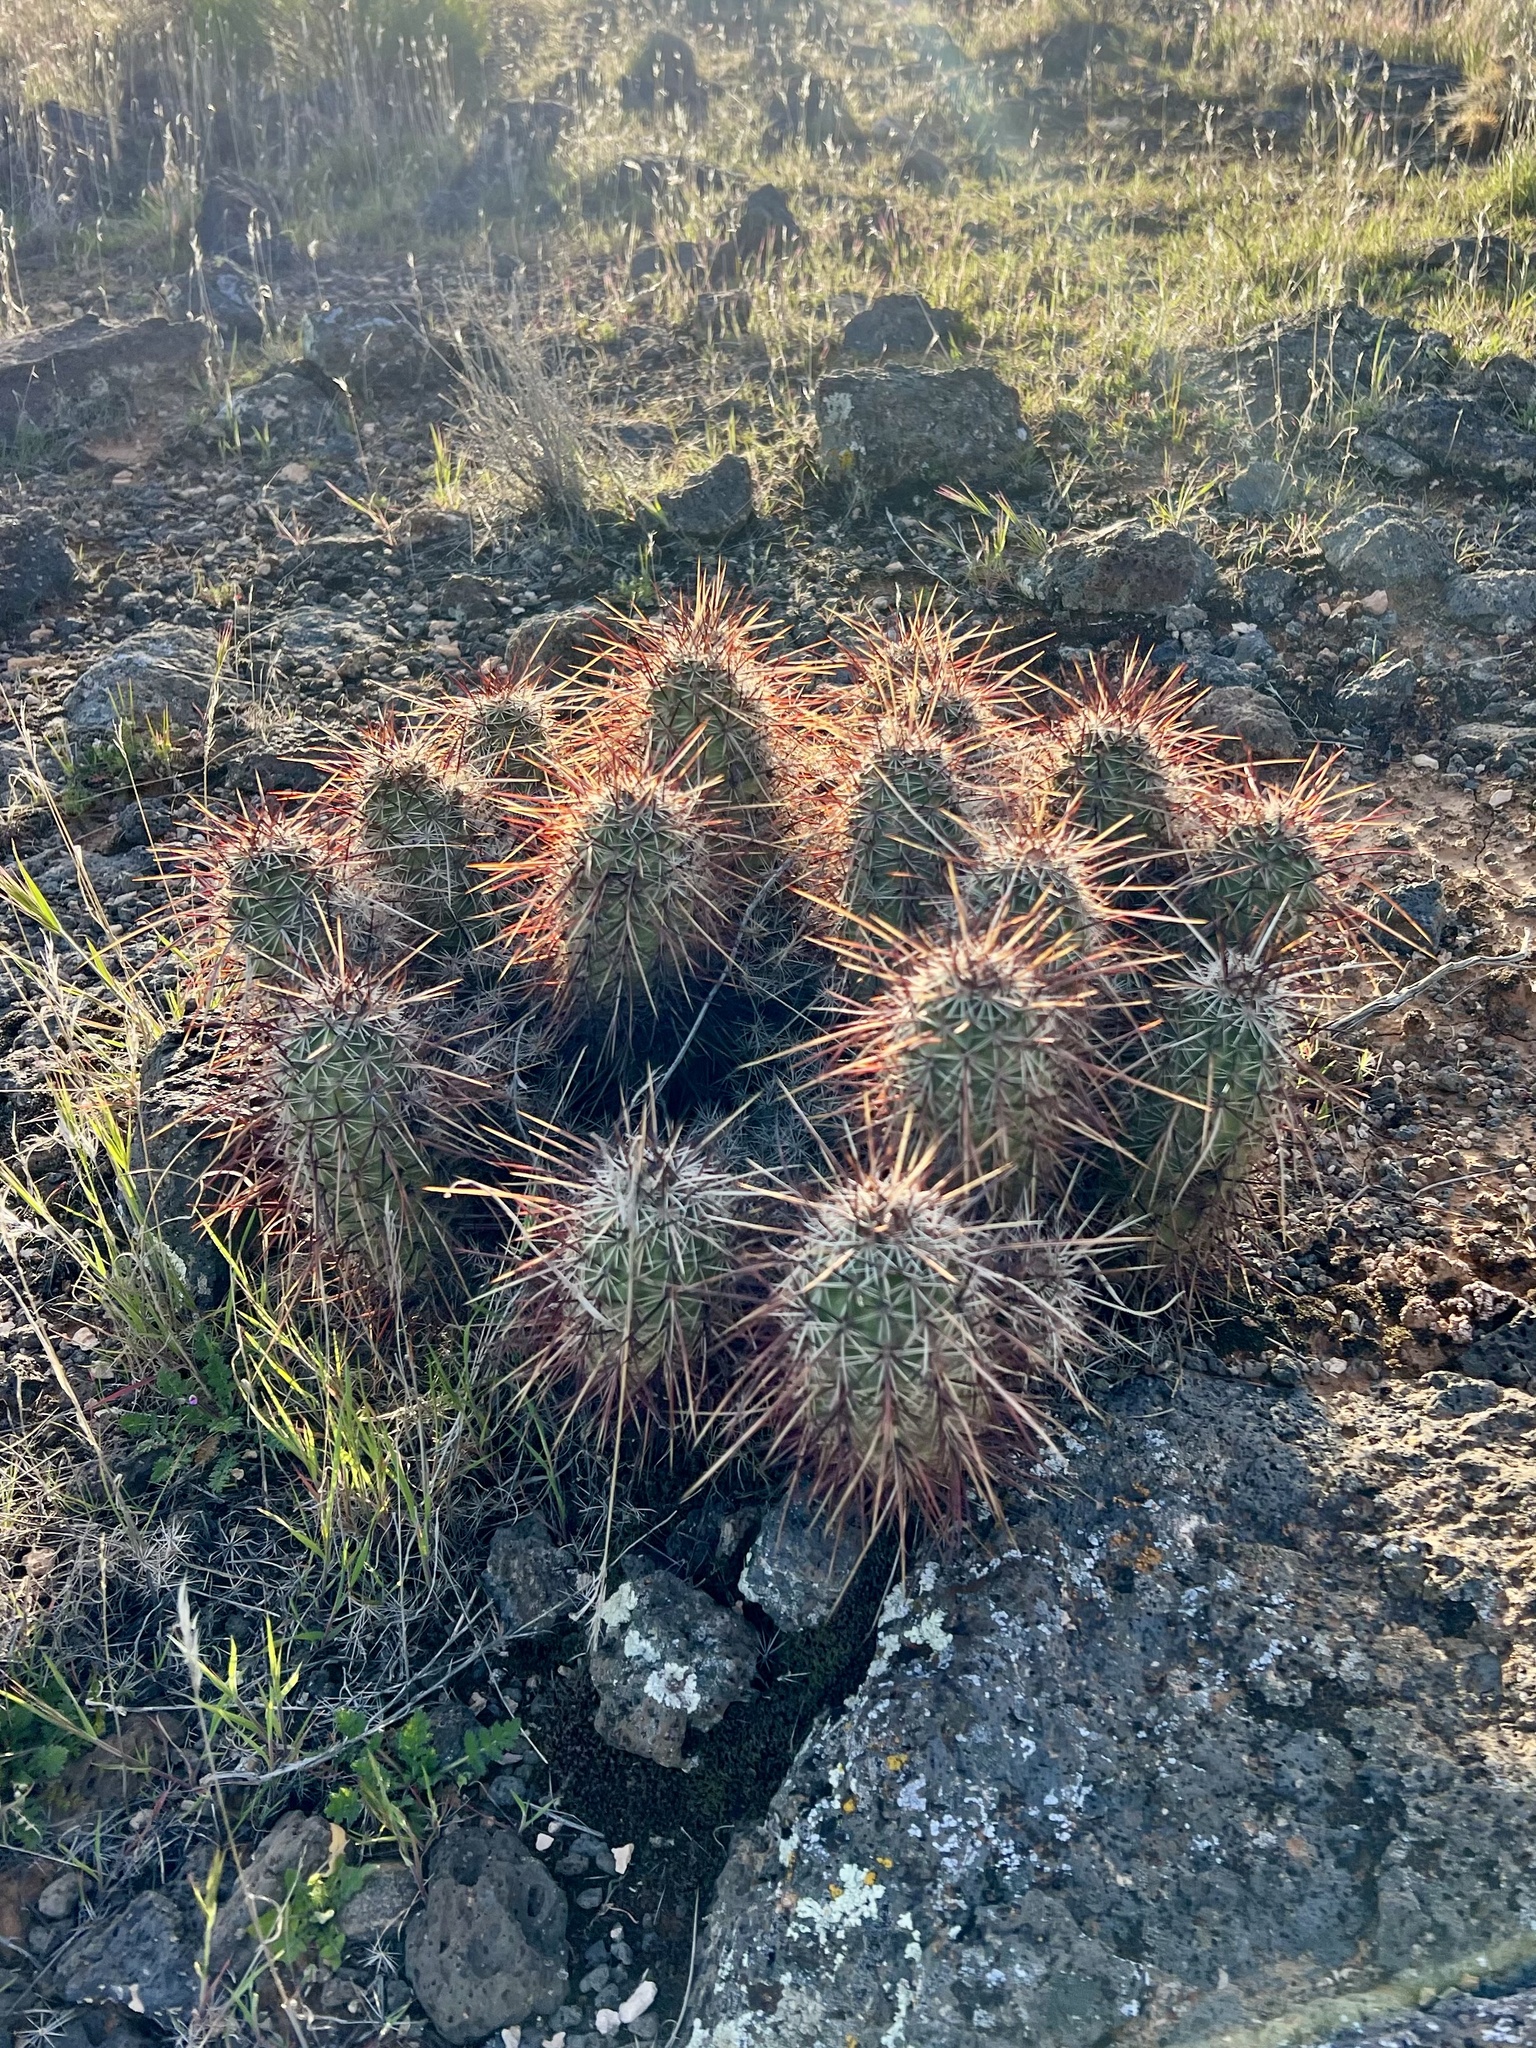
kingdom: Plantae
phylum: Tracheophyta
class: Magnoliopsida
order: Caryophyllales
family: Cactaceae
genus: Echinocereus
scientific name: Echinocereus relictus
